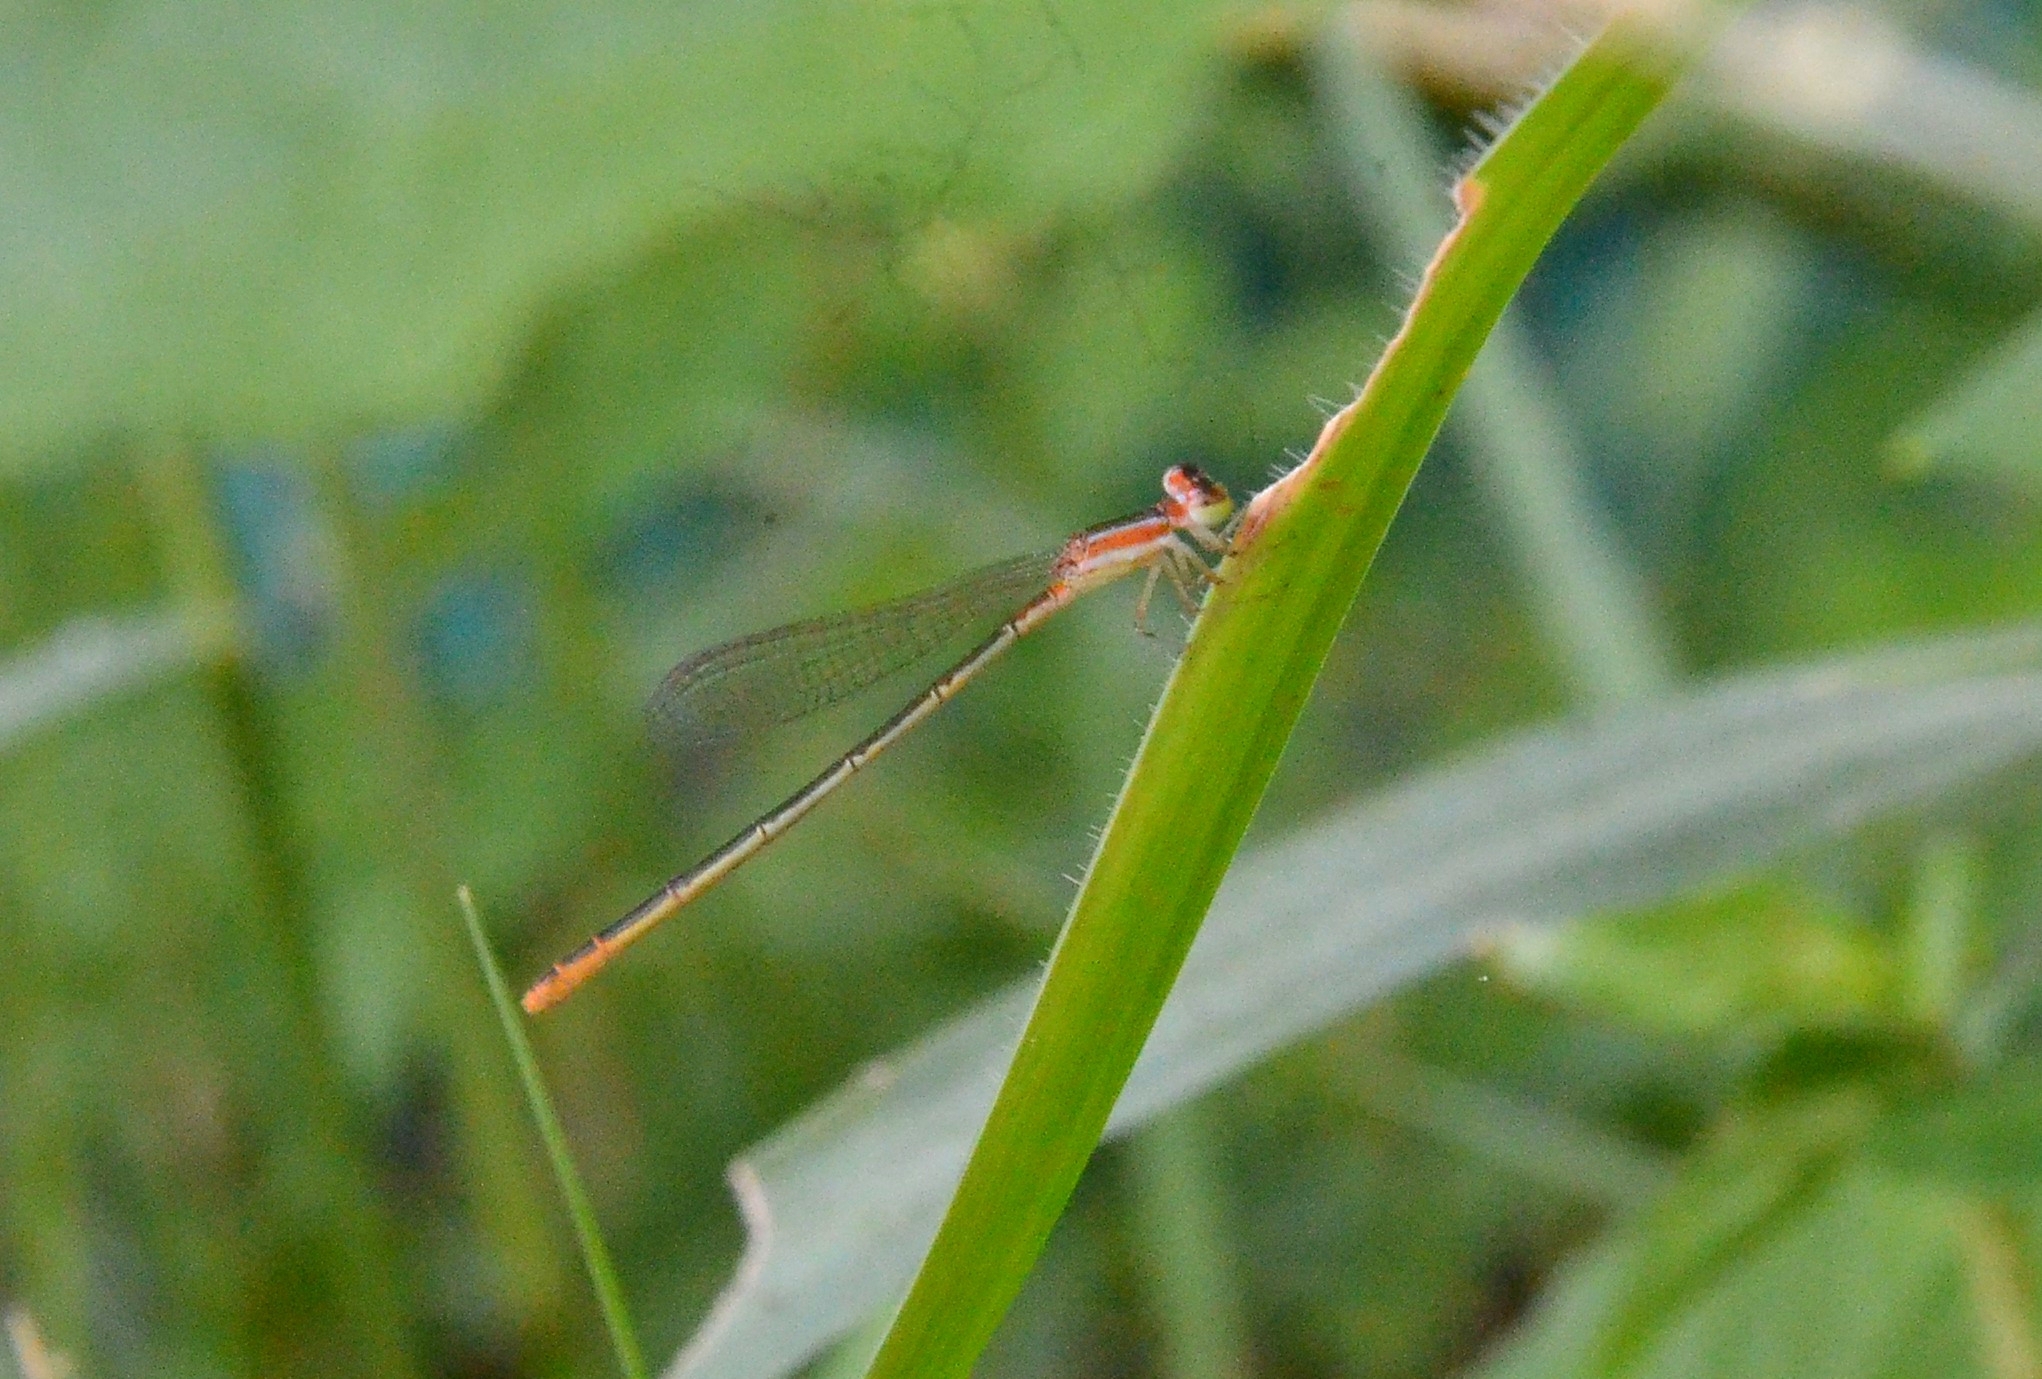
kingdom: Animalia
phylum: Arthropoda
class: Insecta
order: Odonata
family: Coenagrionidae
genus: Agriocnemis
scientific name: Agriocnemis pygmaea
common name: Pygmy wisp
